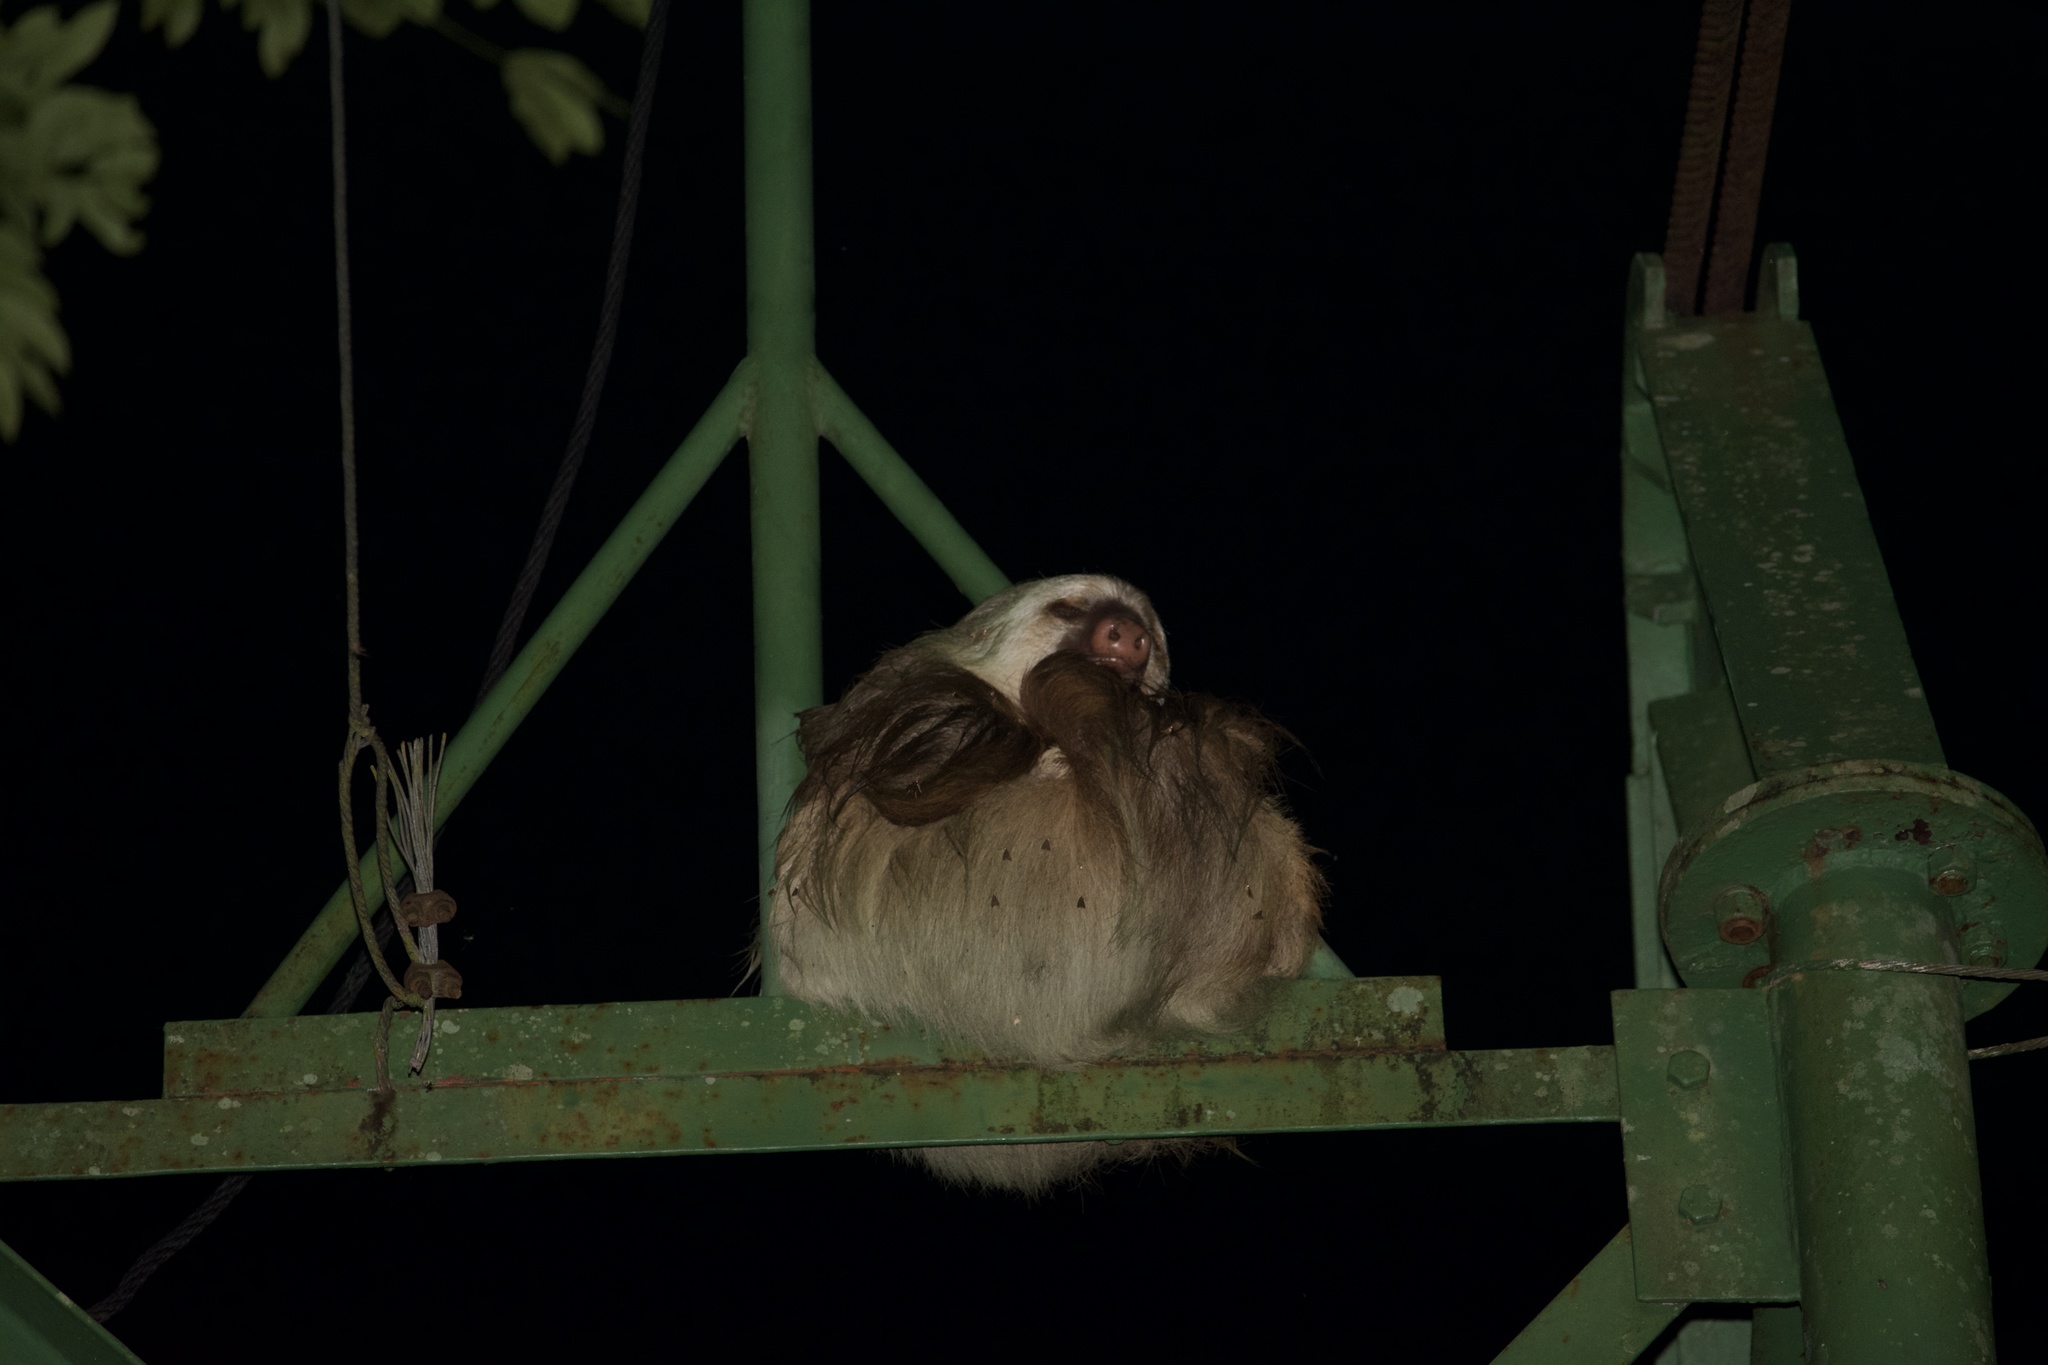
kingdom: Animalia
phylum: Chordata
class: Mammalia
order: Pilosa
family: Megalonychidae
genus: Choloepus
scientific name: Choloepus hoffmanni
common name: Hoffmann's two-toed sloth
